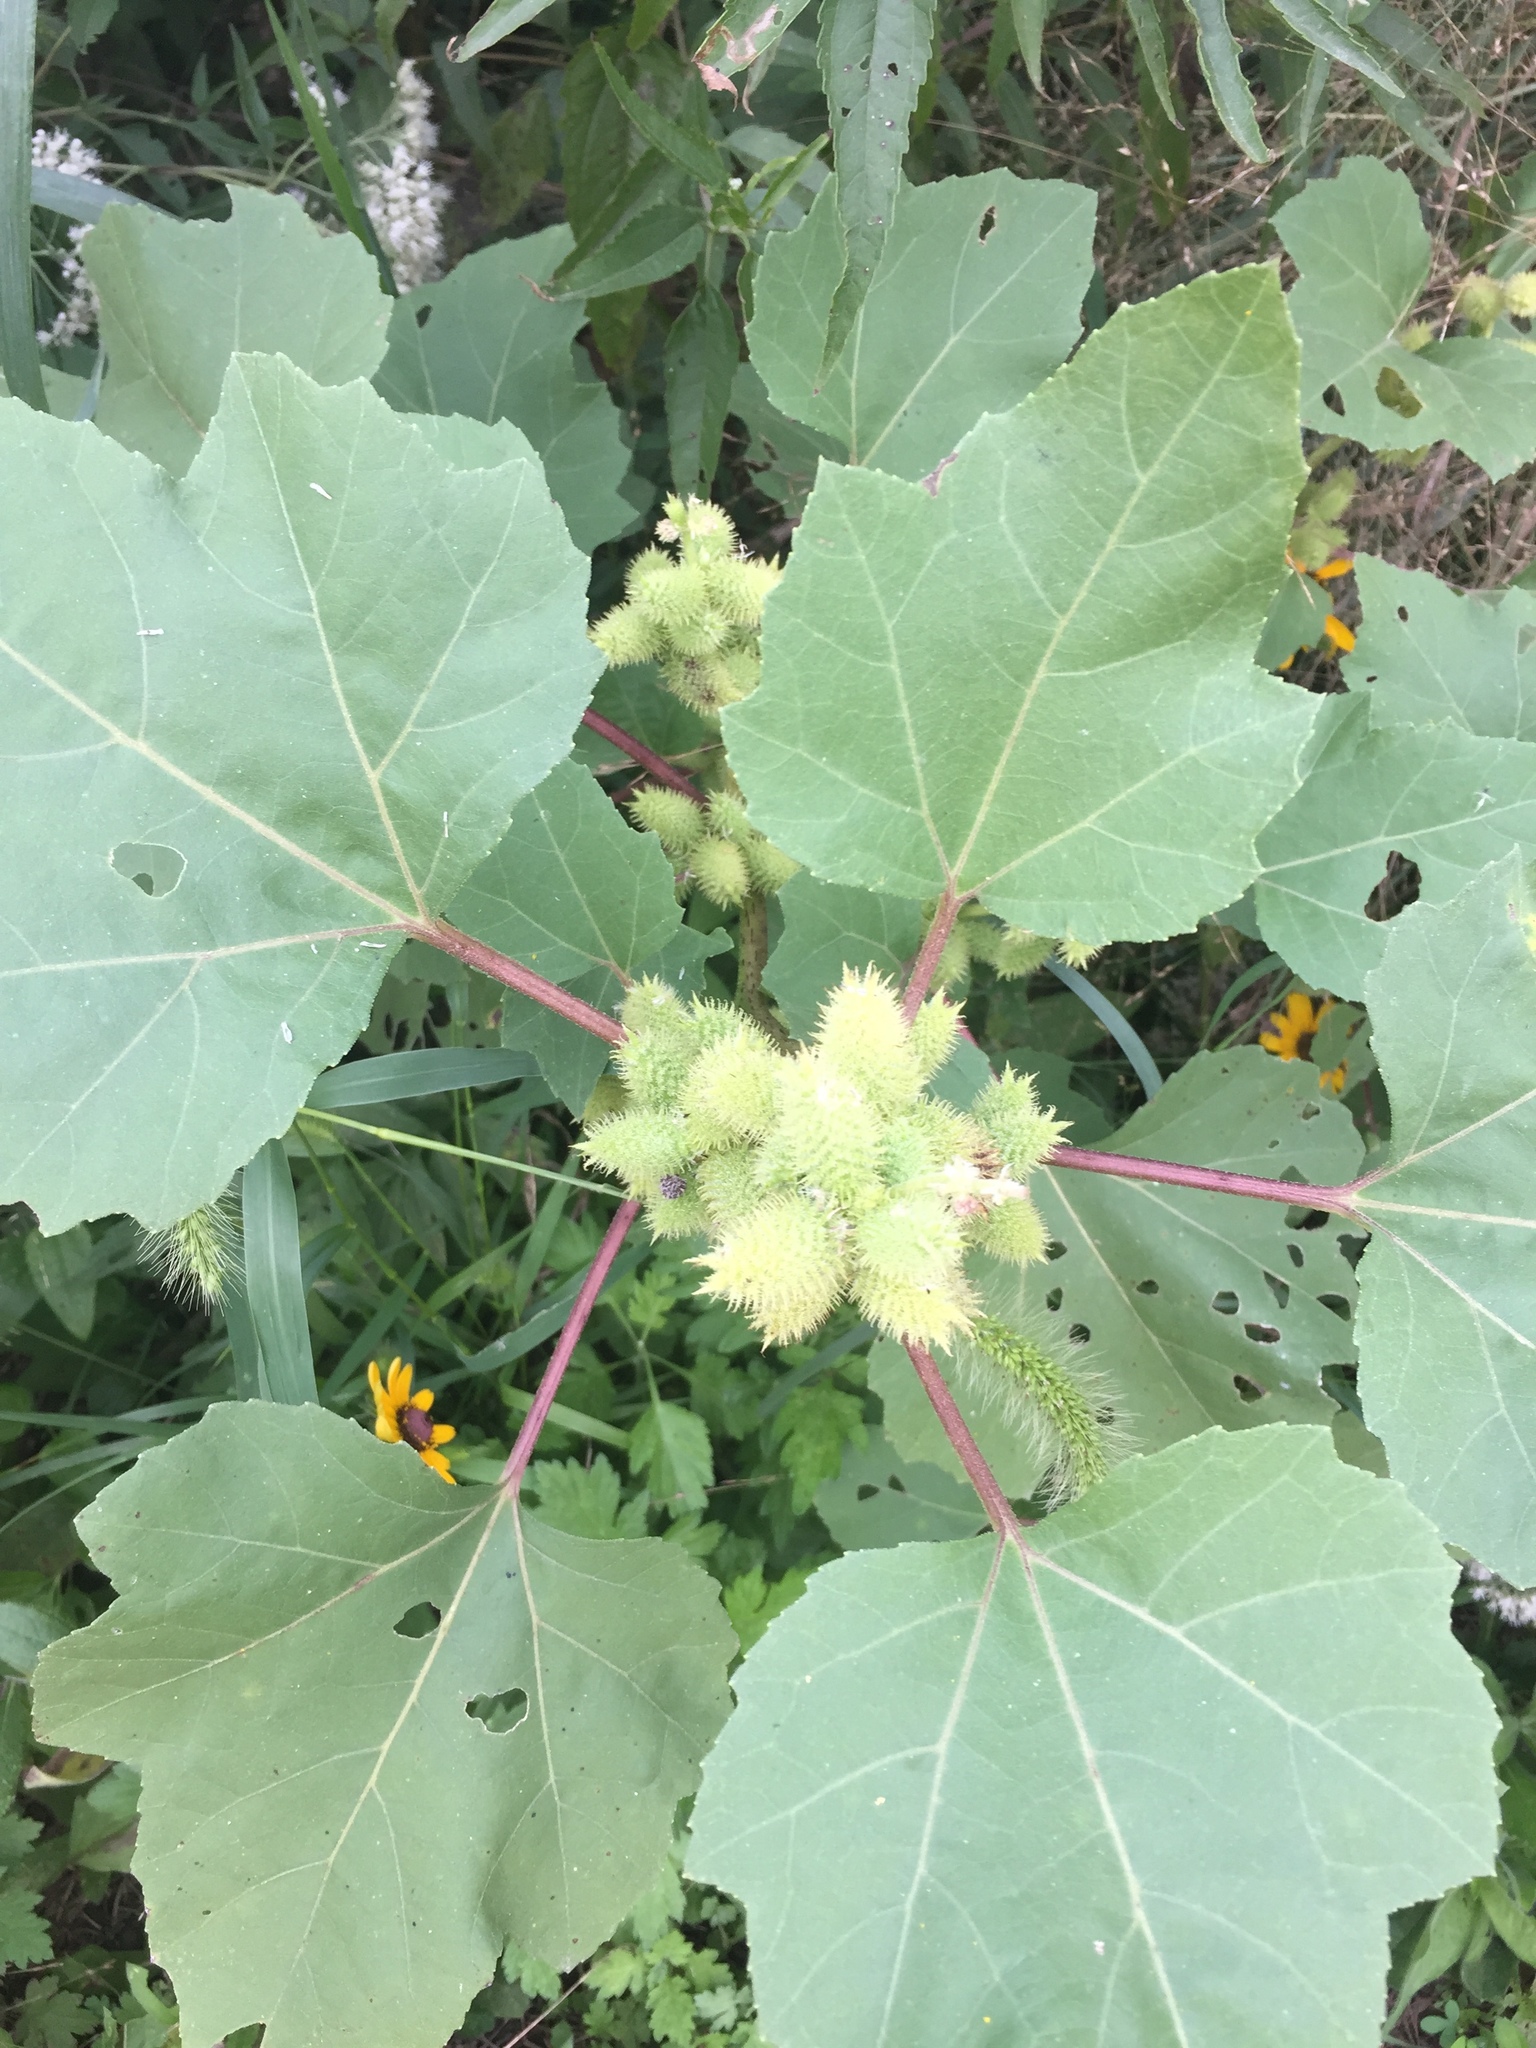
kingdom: Plantae
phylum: Tracheophyta
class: Magnoliopsida
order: Asterales
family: Asteraceae
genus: Xanthium
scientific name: Xanthium strumarium
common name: Rough cocklebur
